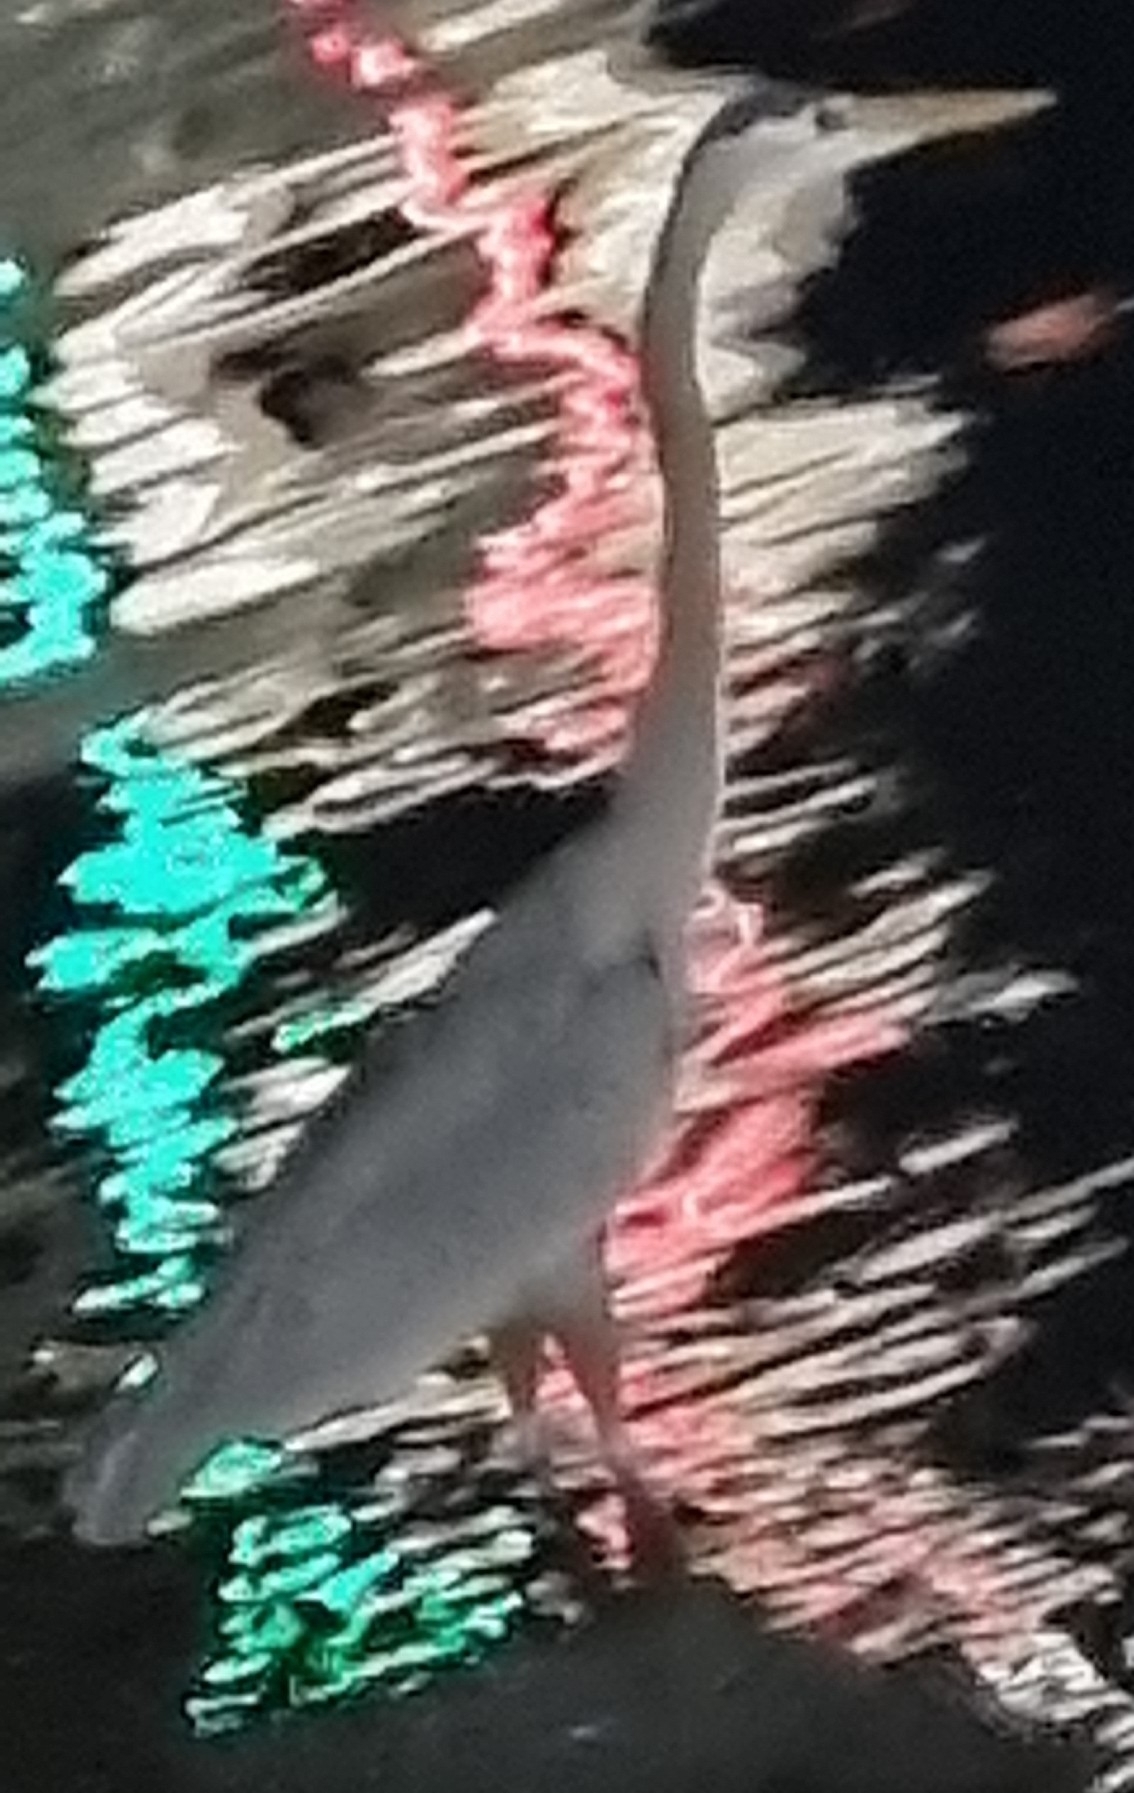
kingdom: Animalia
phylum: Chordata
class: Aves
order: Pelecaniformes
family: Ardeidae
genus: Ardea
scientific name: Ardea herodias
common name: Great blue heron
